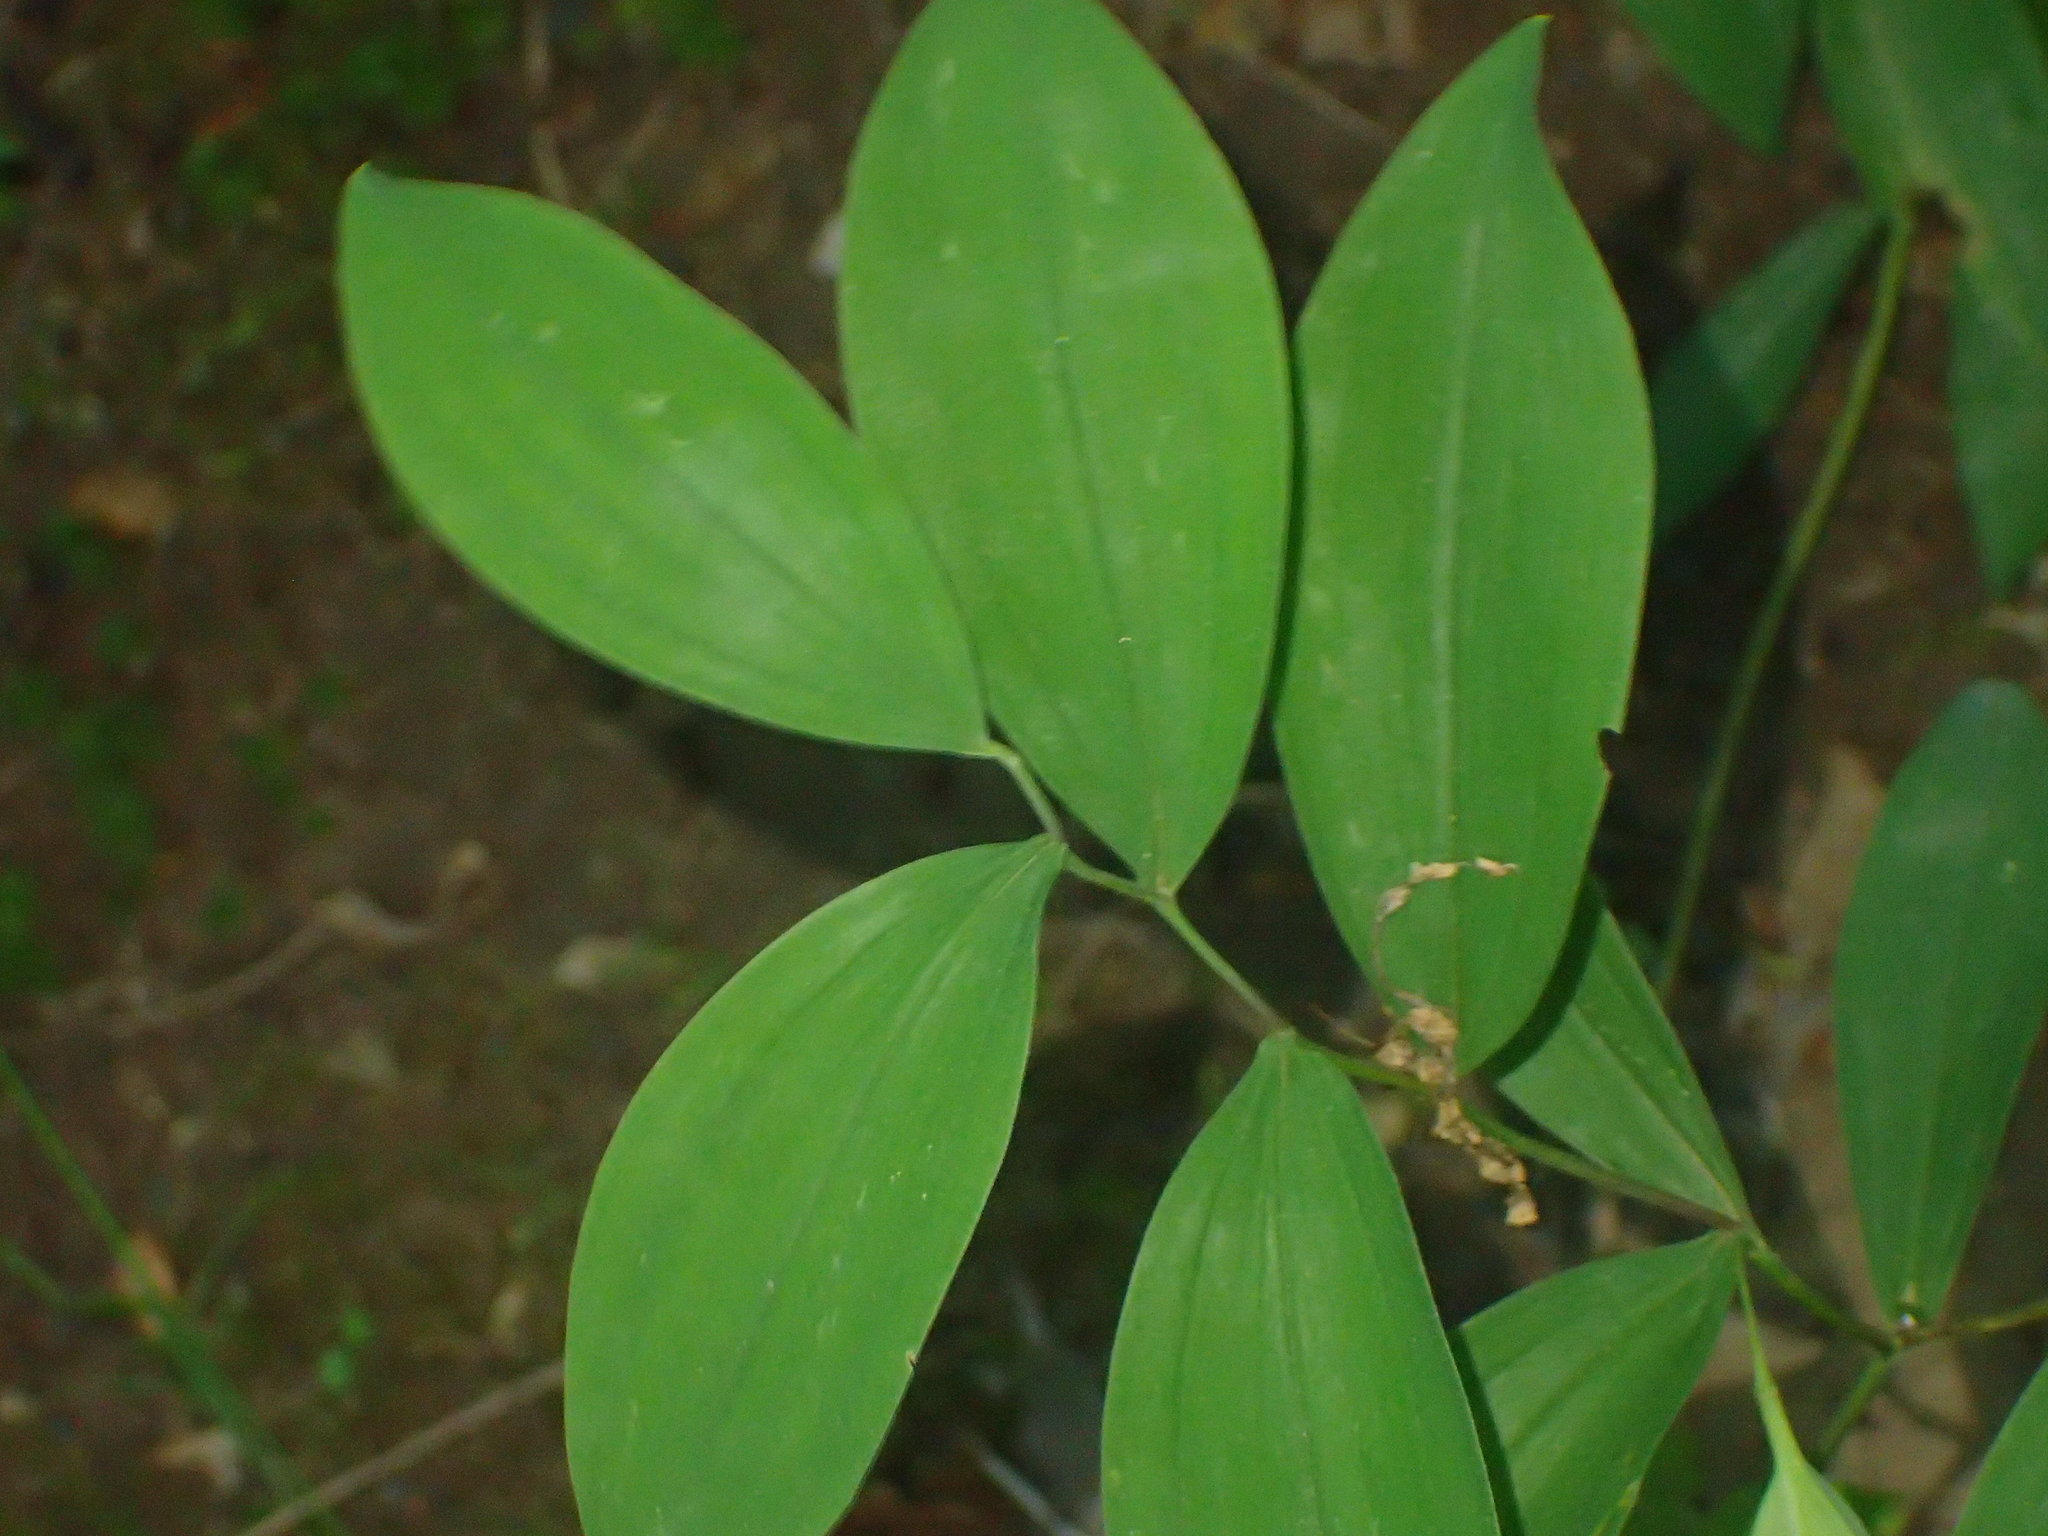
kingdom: Plantae
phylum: Tracheophyta
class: Liliopsida
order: Liliales
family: Colchicaceae
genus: Uvularia
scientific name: Uvularia sessilifolia
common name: Straw-lily
